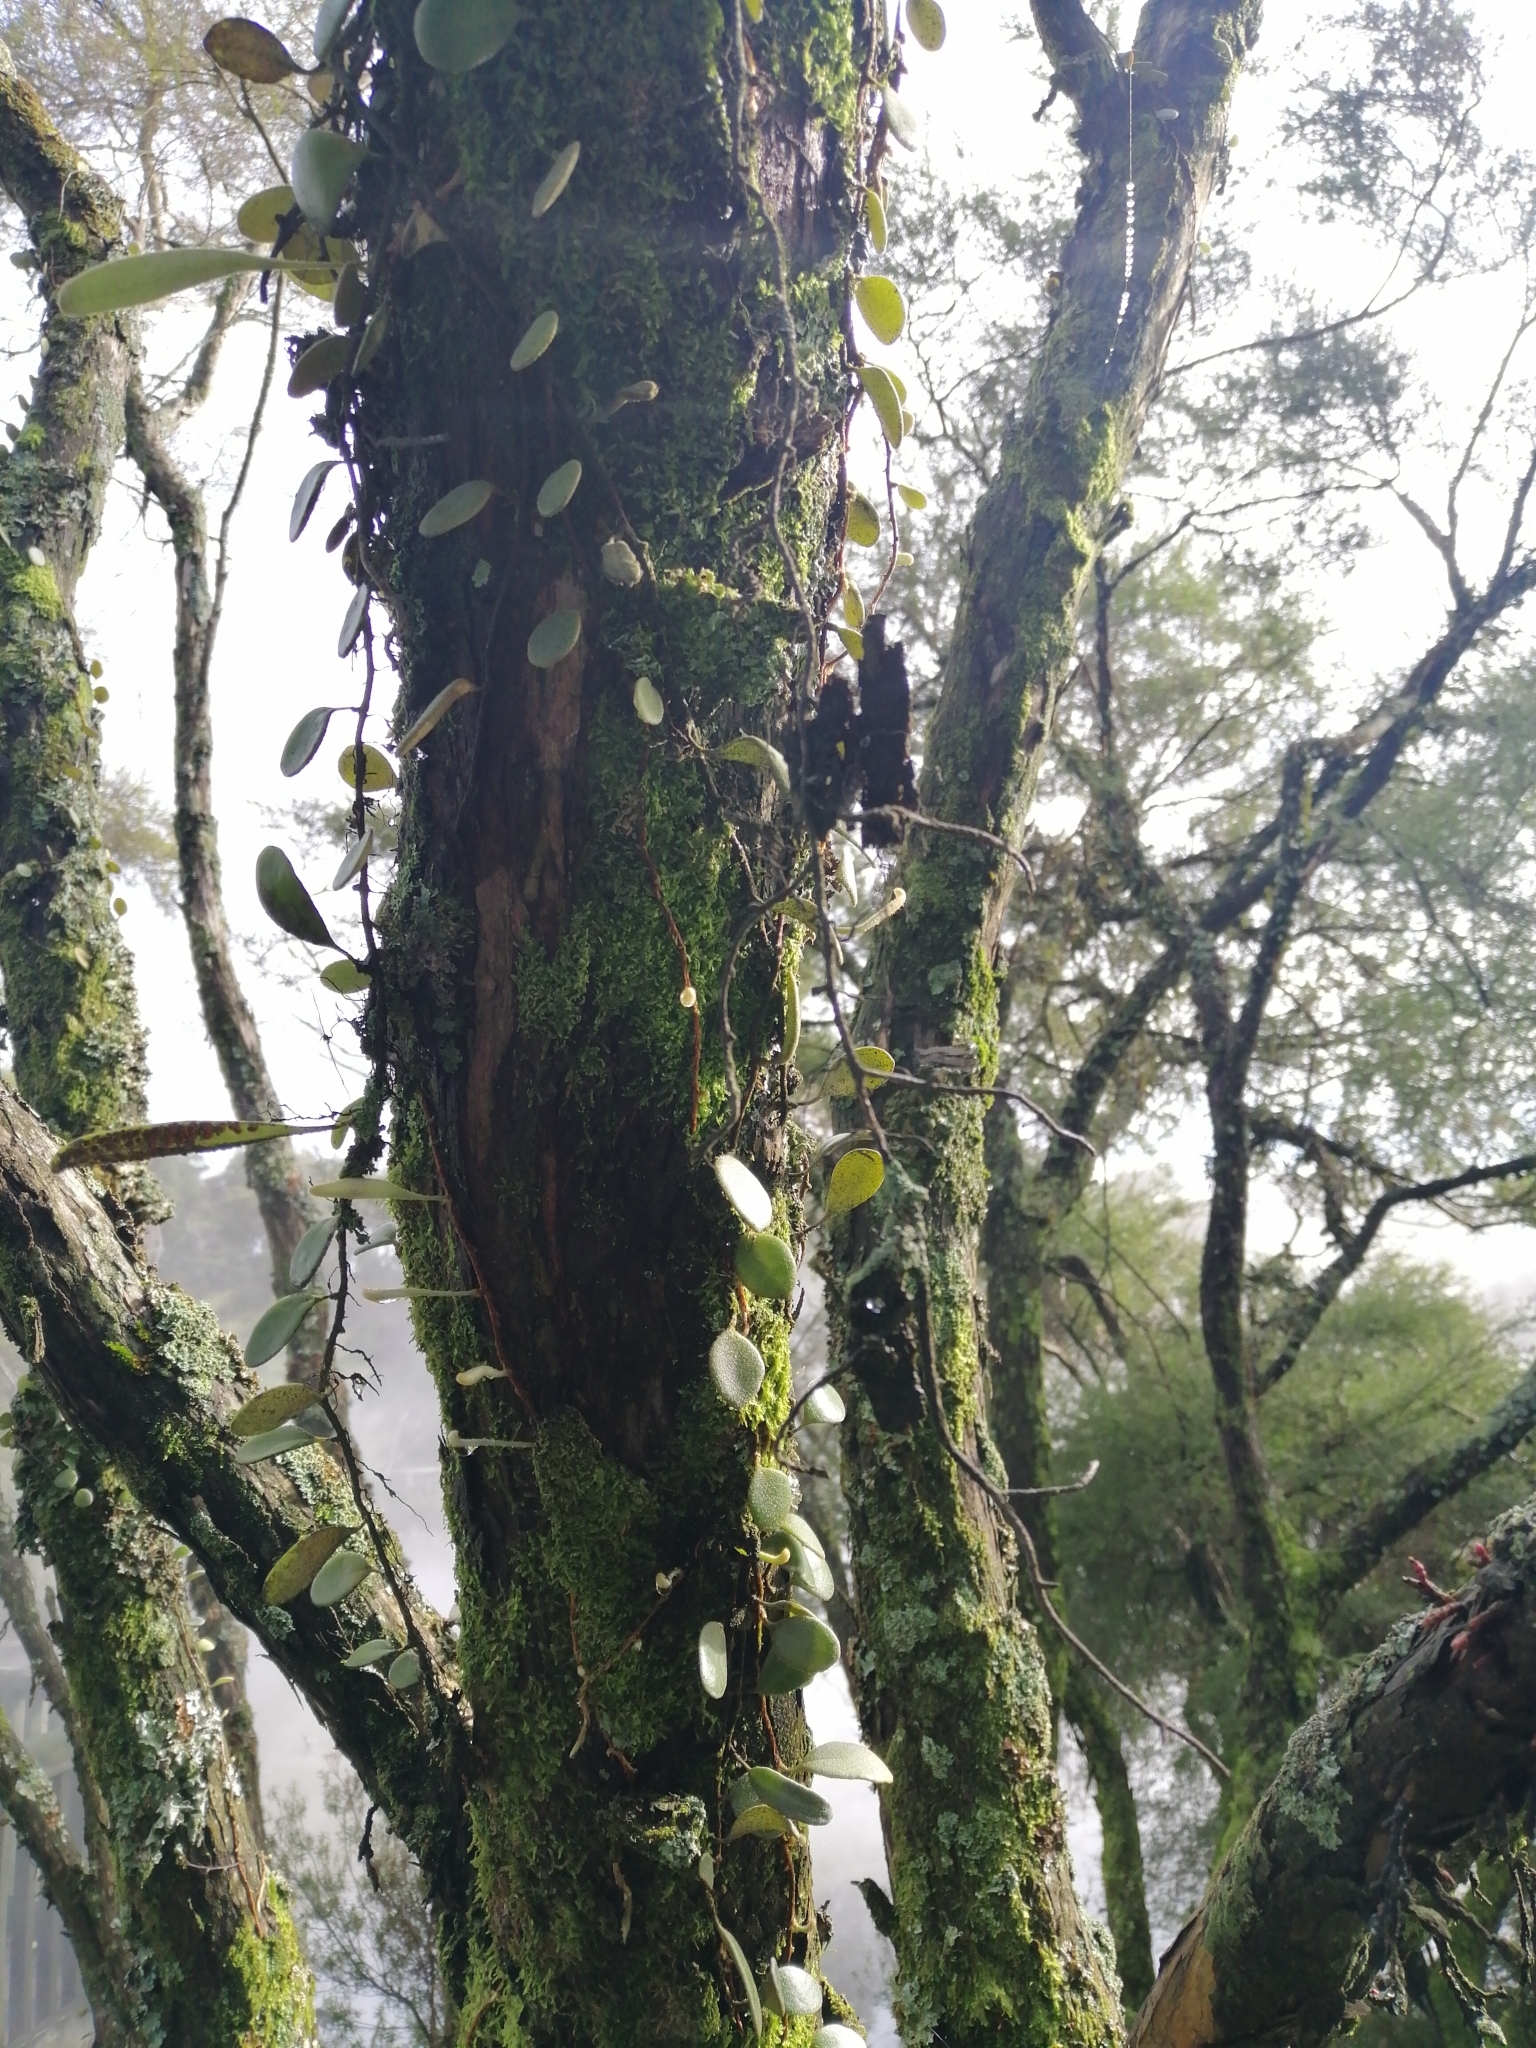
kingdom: Plantae
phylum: Tracheophyta
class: Polypodiopsida
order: Polypodiales
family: Polypodiaceae
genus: Pyrrosia
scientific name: Pyrrosia eleagnifolia
